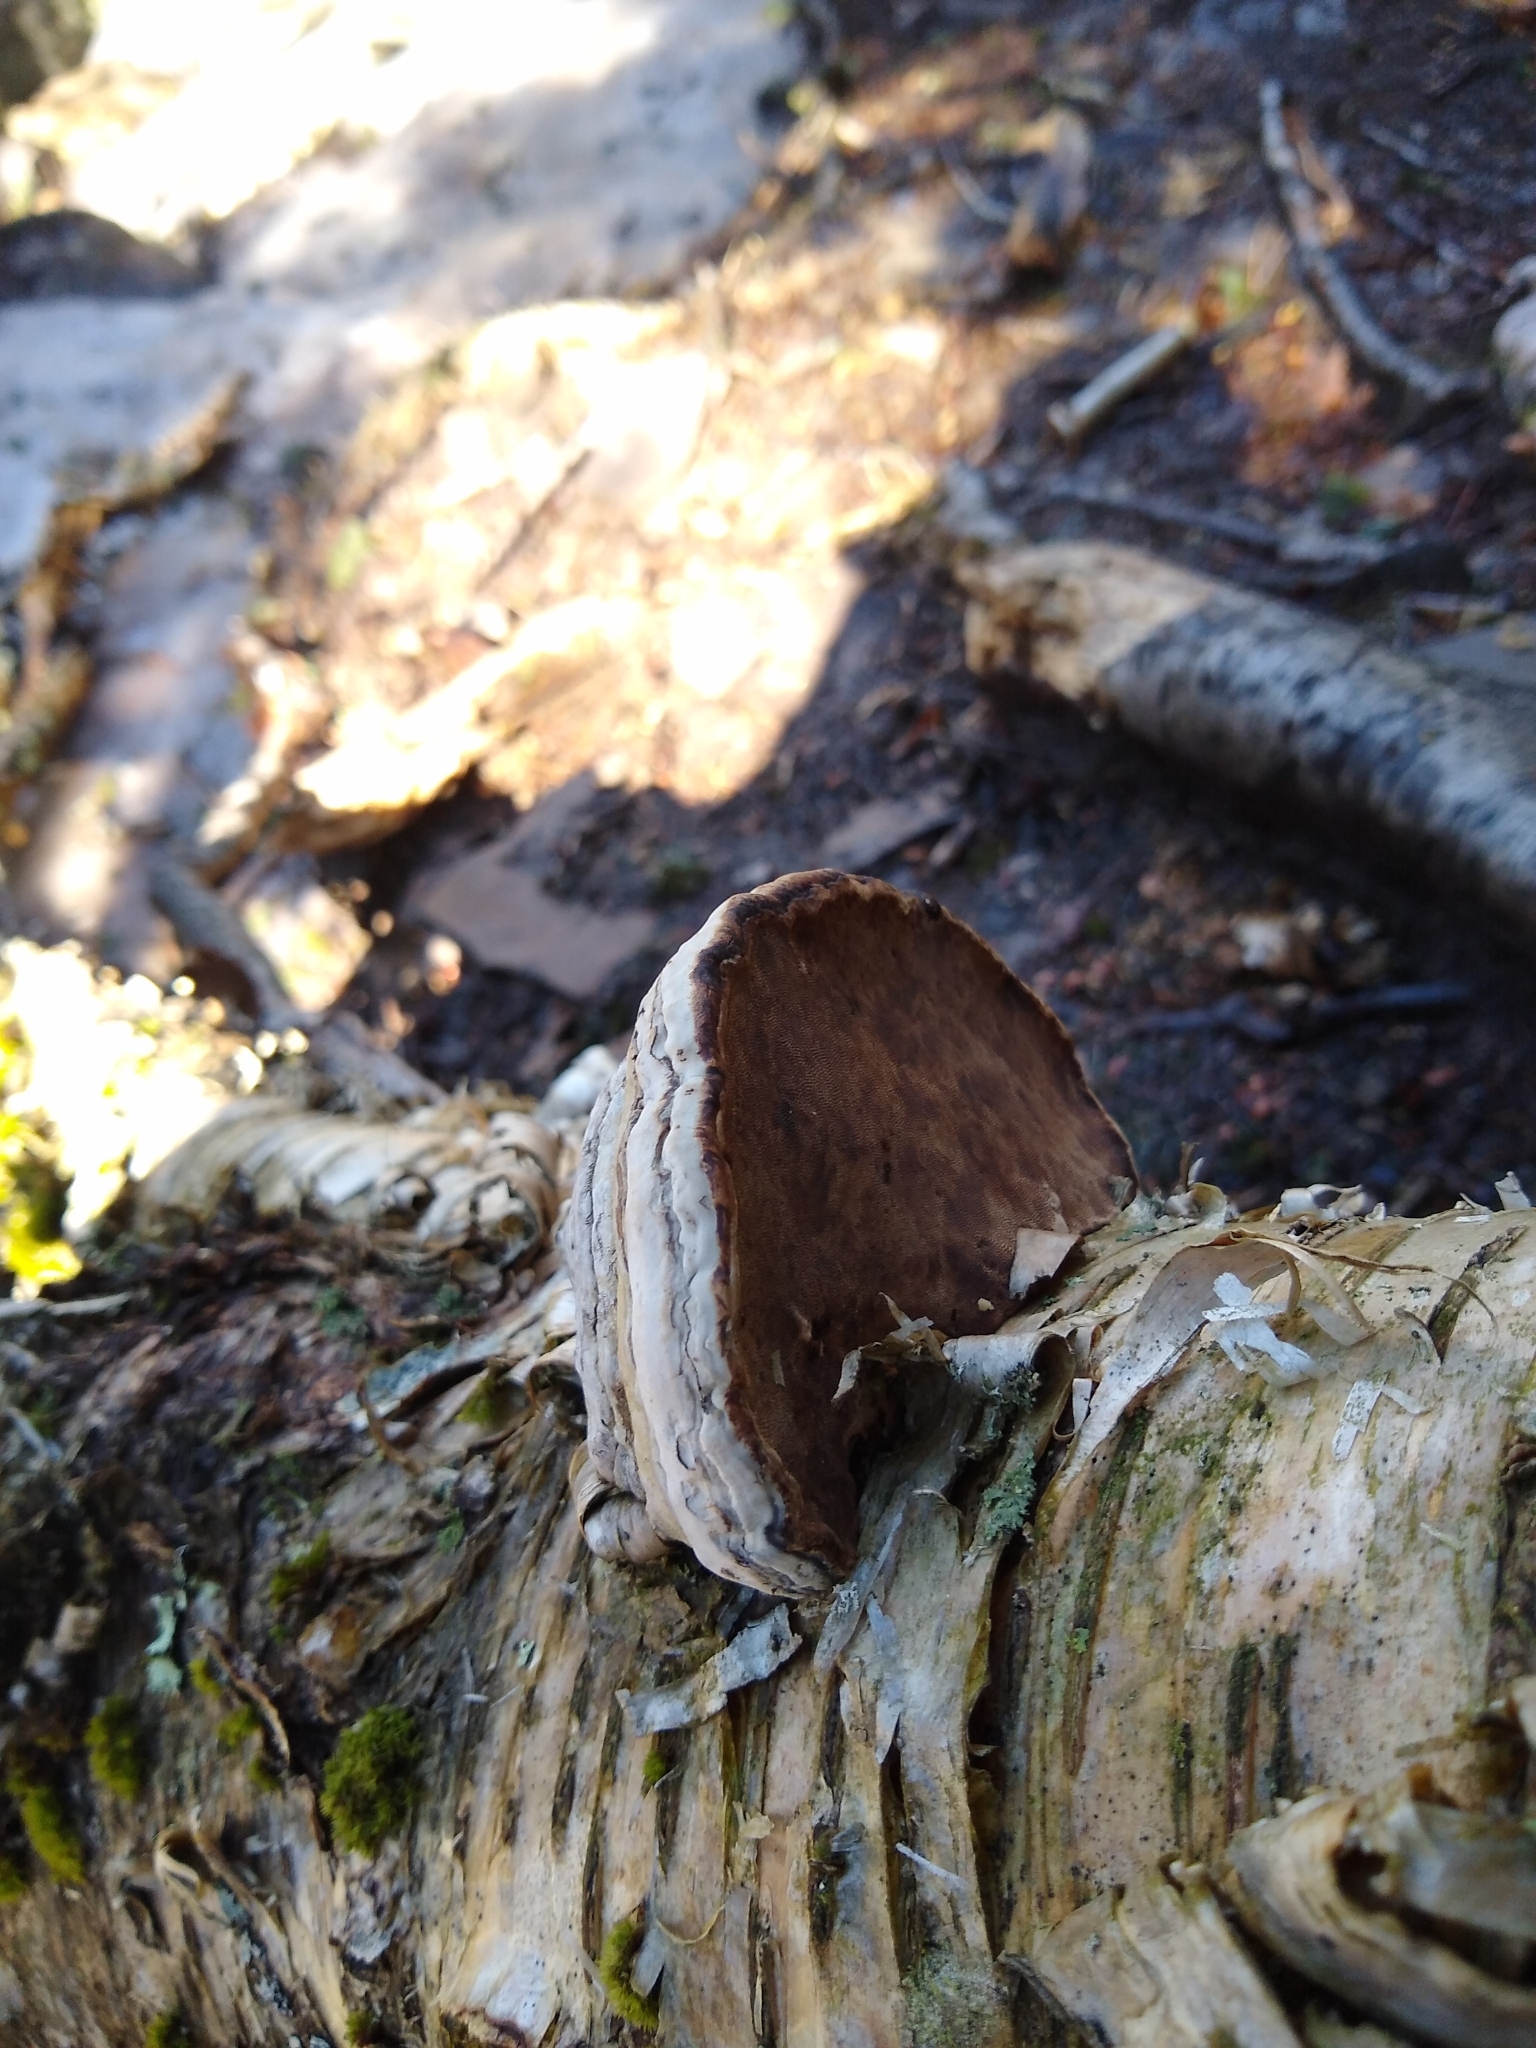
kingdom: Fungi
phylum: Basidiomycota
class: Agaricomycetes
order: Polyporales
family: Polyporaceae
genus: Fomes
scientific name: Fomes fomentarius
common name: Hoof fungus
